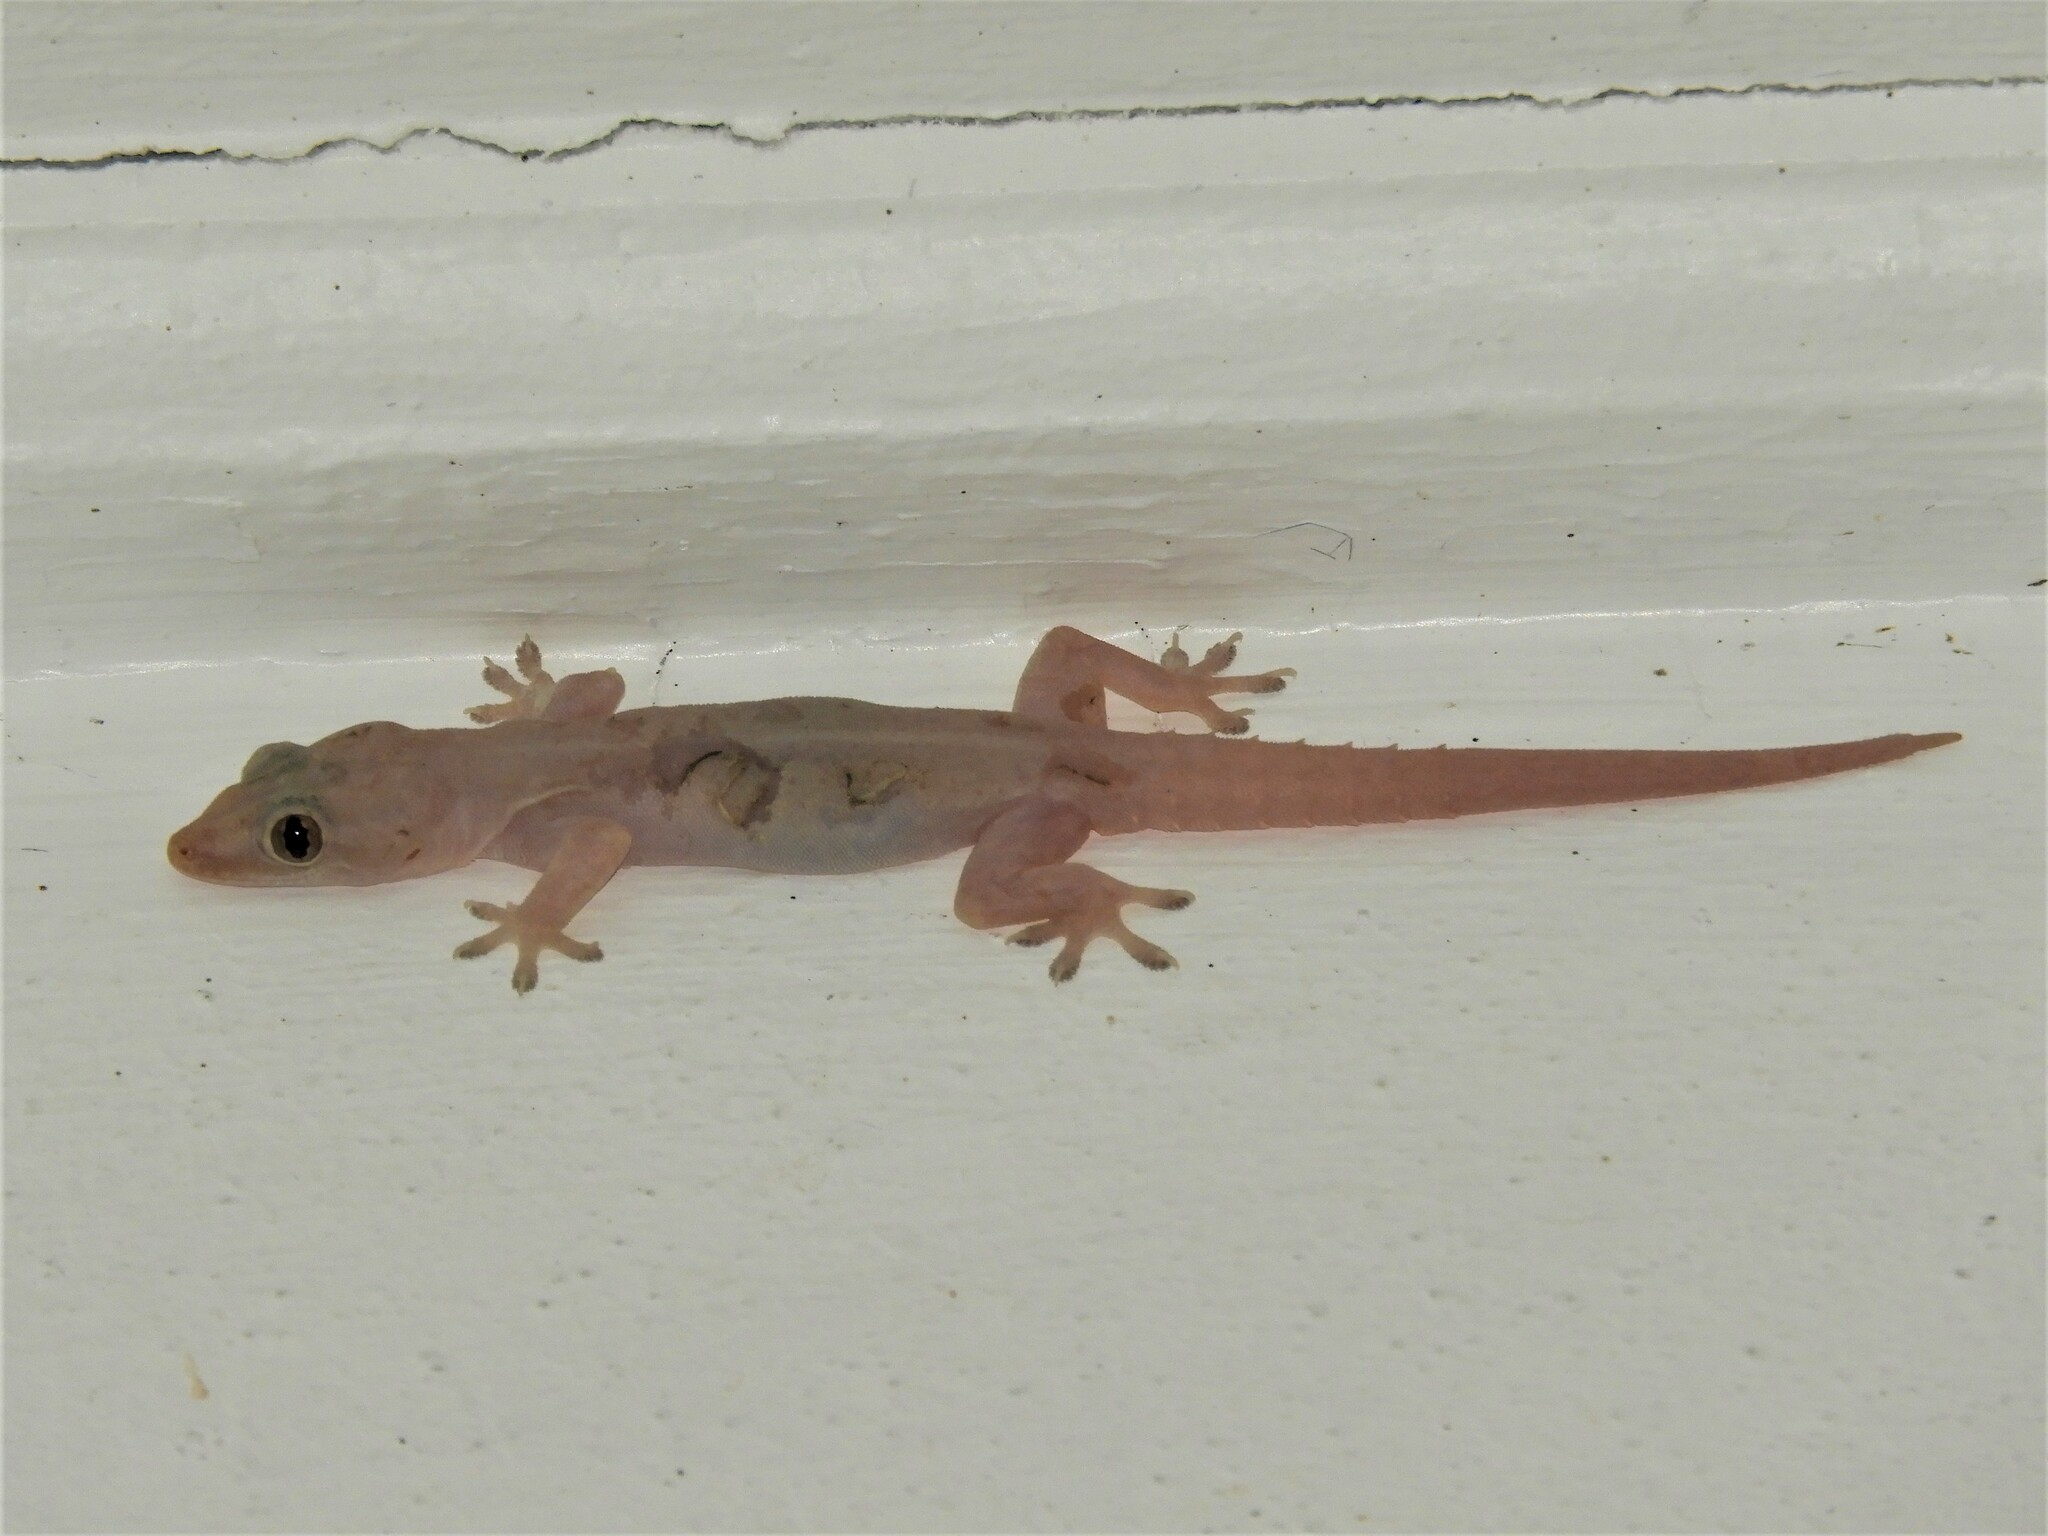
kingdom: Animalia
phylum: Chordata
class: Squamata
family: Gekkonidae
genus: Hemidactylus
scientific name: Hemidactylus frenatus
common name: Common house gecko
